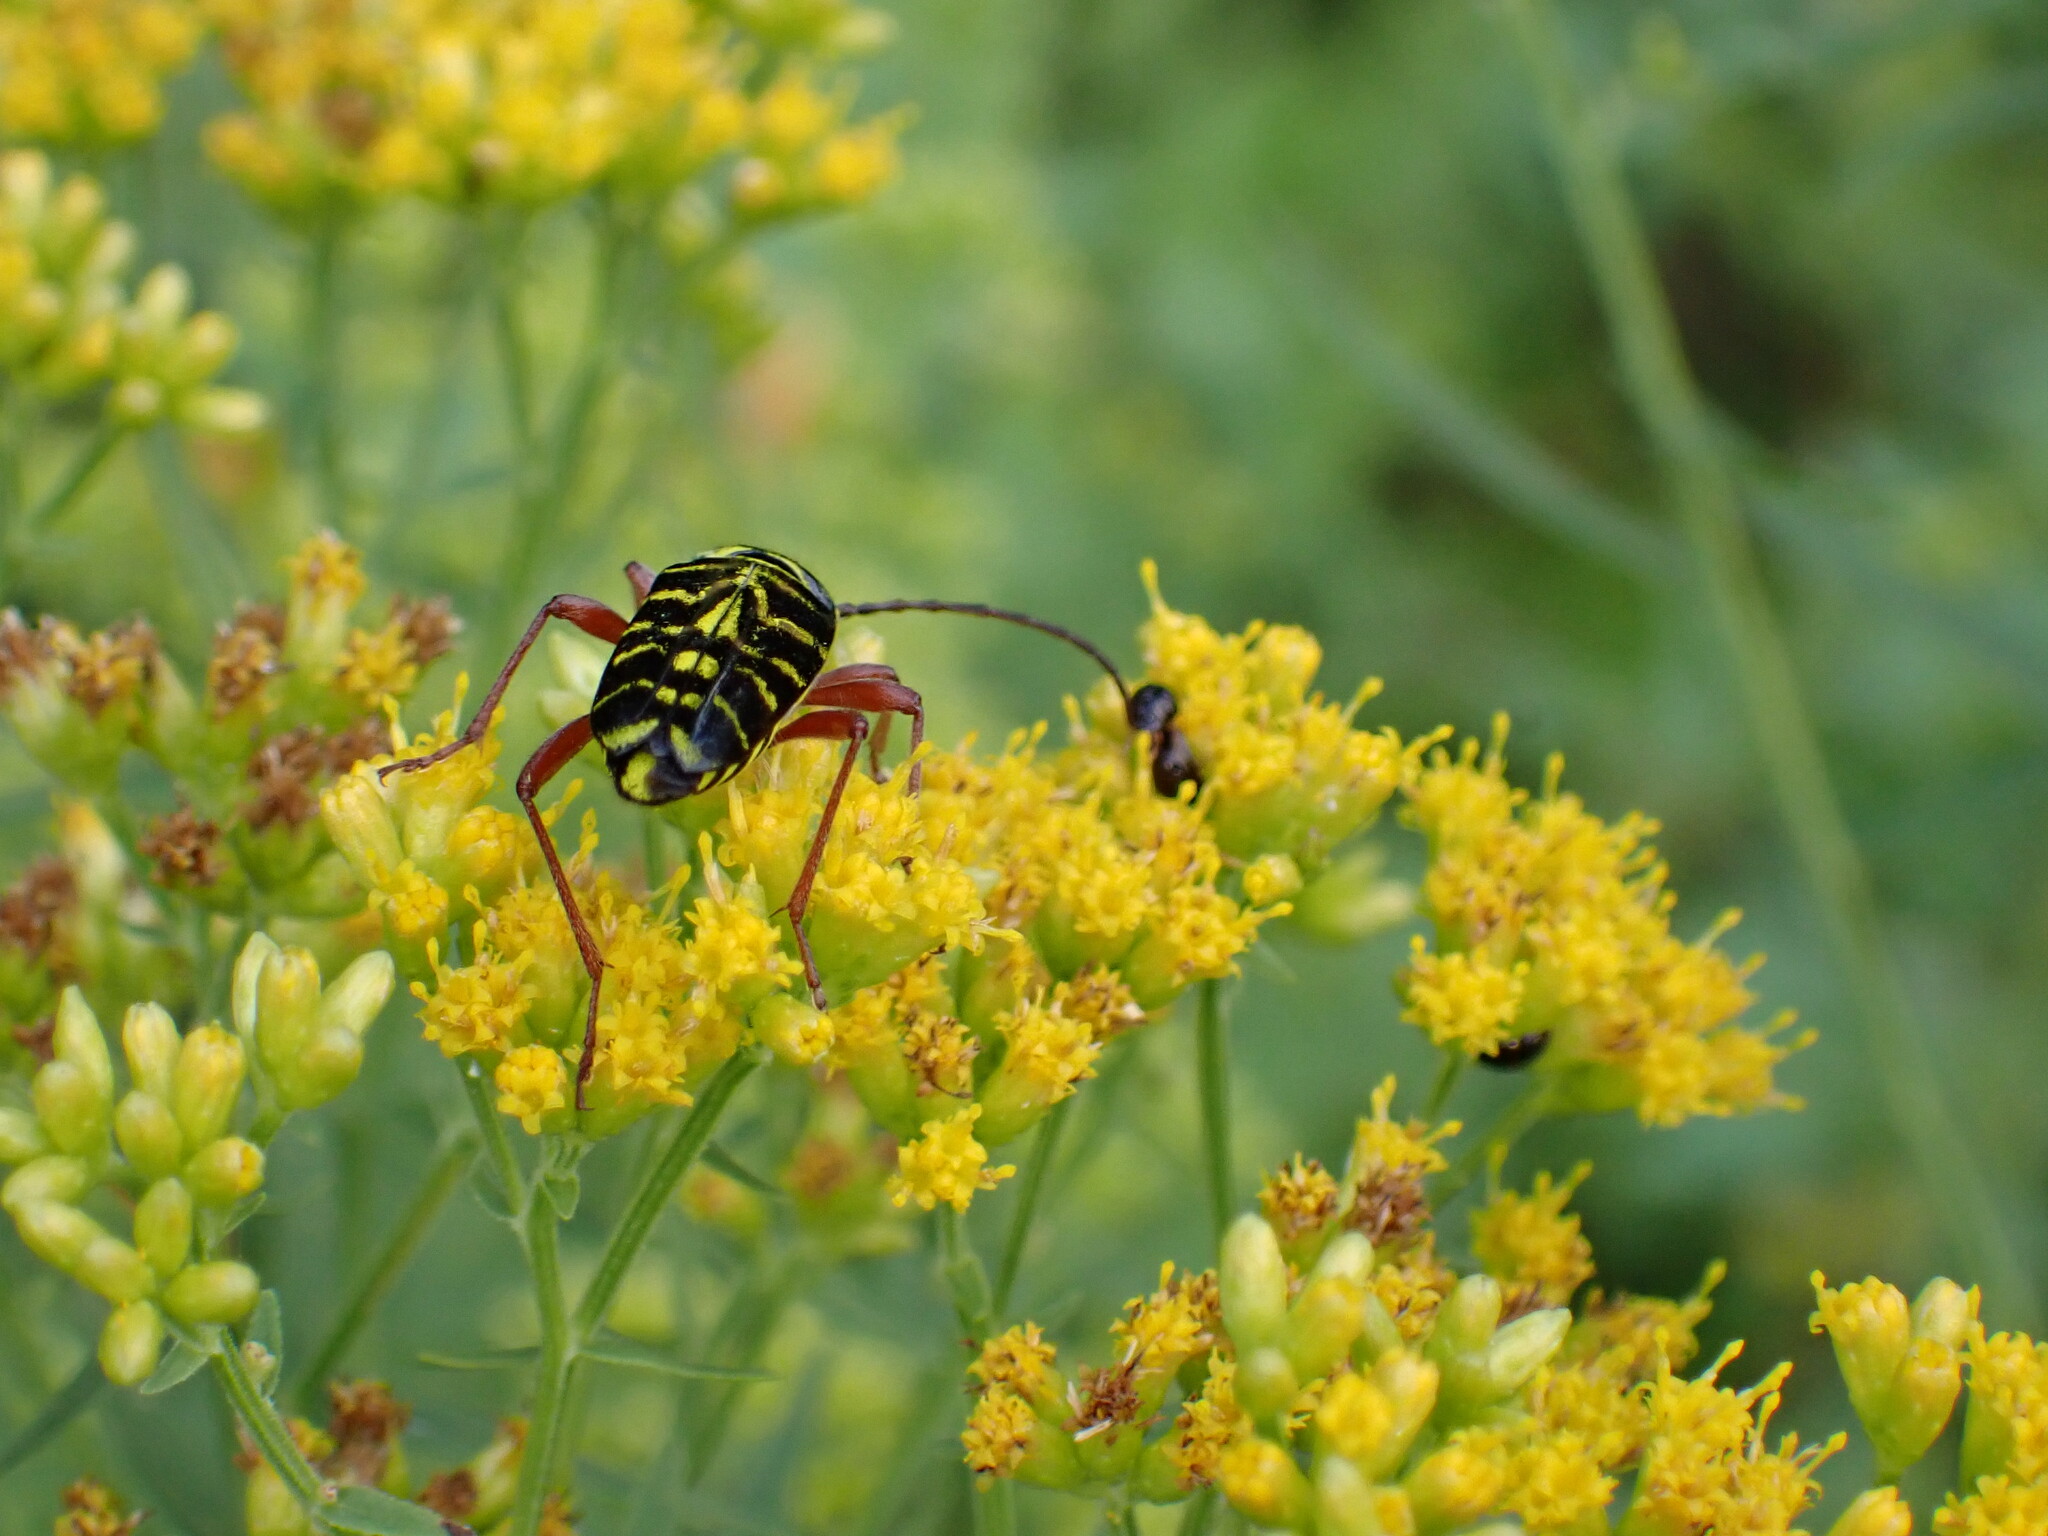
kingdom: Animalia
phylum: Arthropoda
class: Insecta
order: Coleoptera
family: Cerambycidae
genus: Megacyllene
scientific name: Megacyllene robiniae
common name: Locust borer
